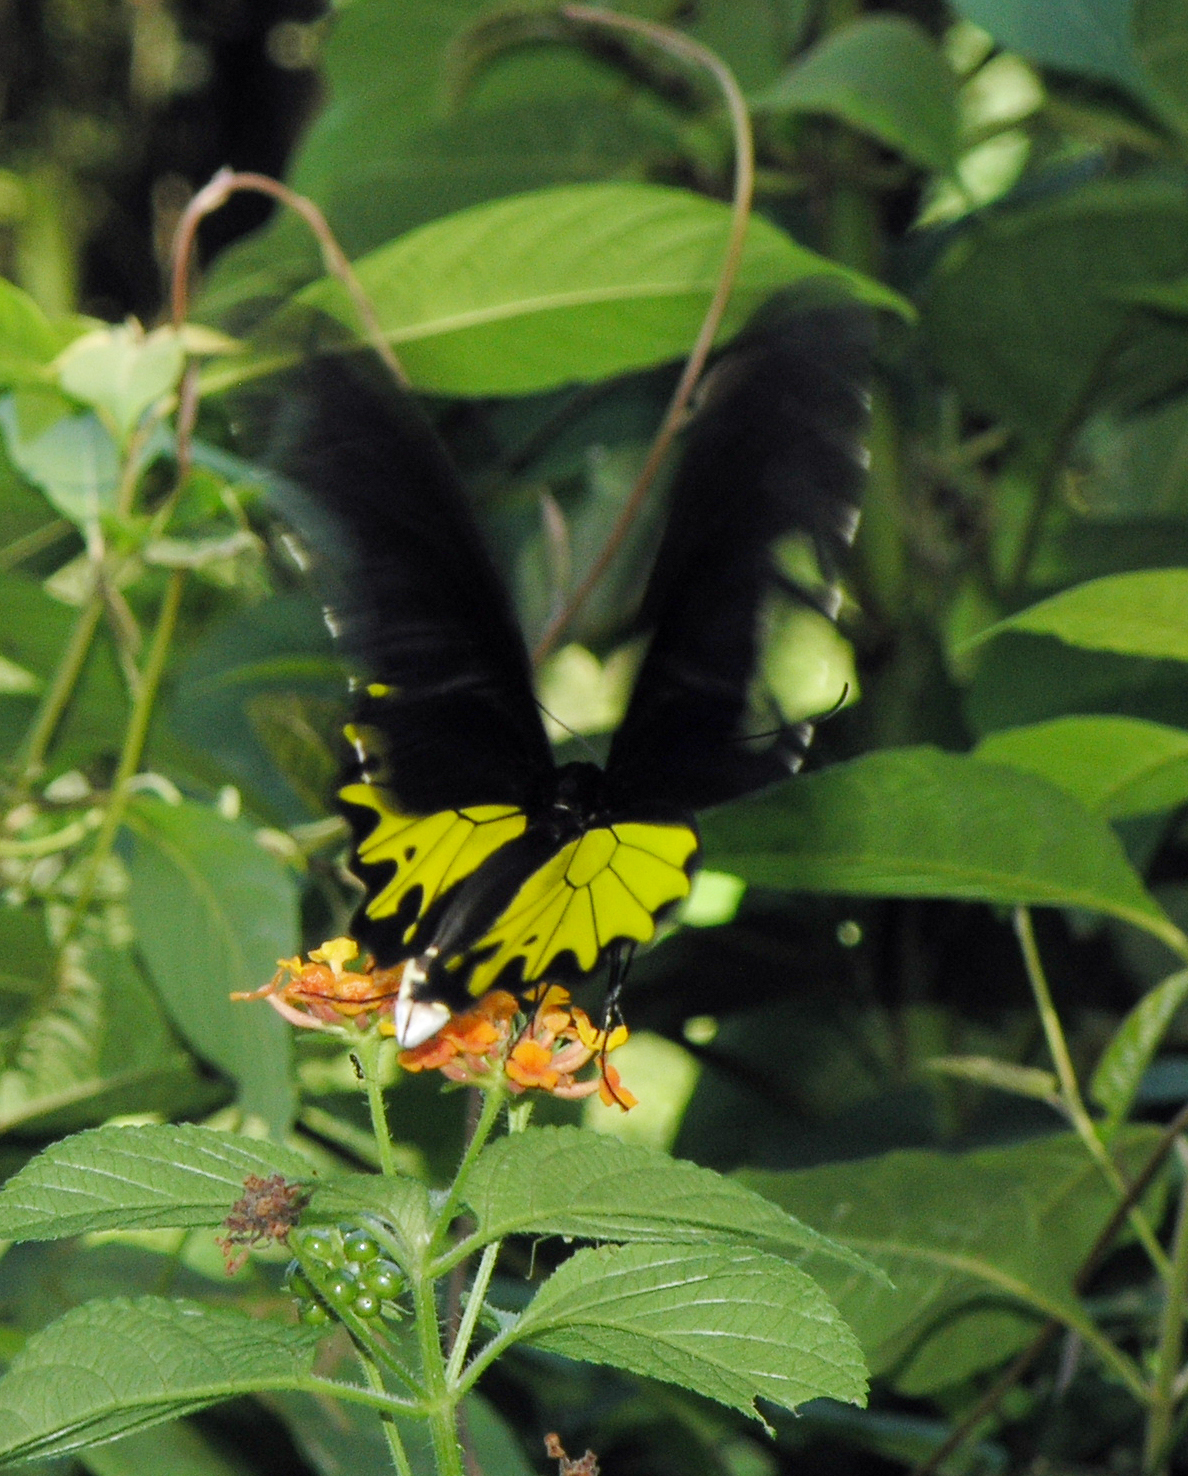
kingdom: Animalia
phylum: Arthropoda
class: Insecta
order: Lepidoptera
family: Papilionidae
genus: Troides
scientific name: Troides helena
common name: Common birdwing
